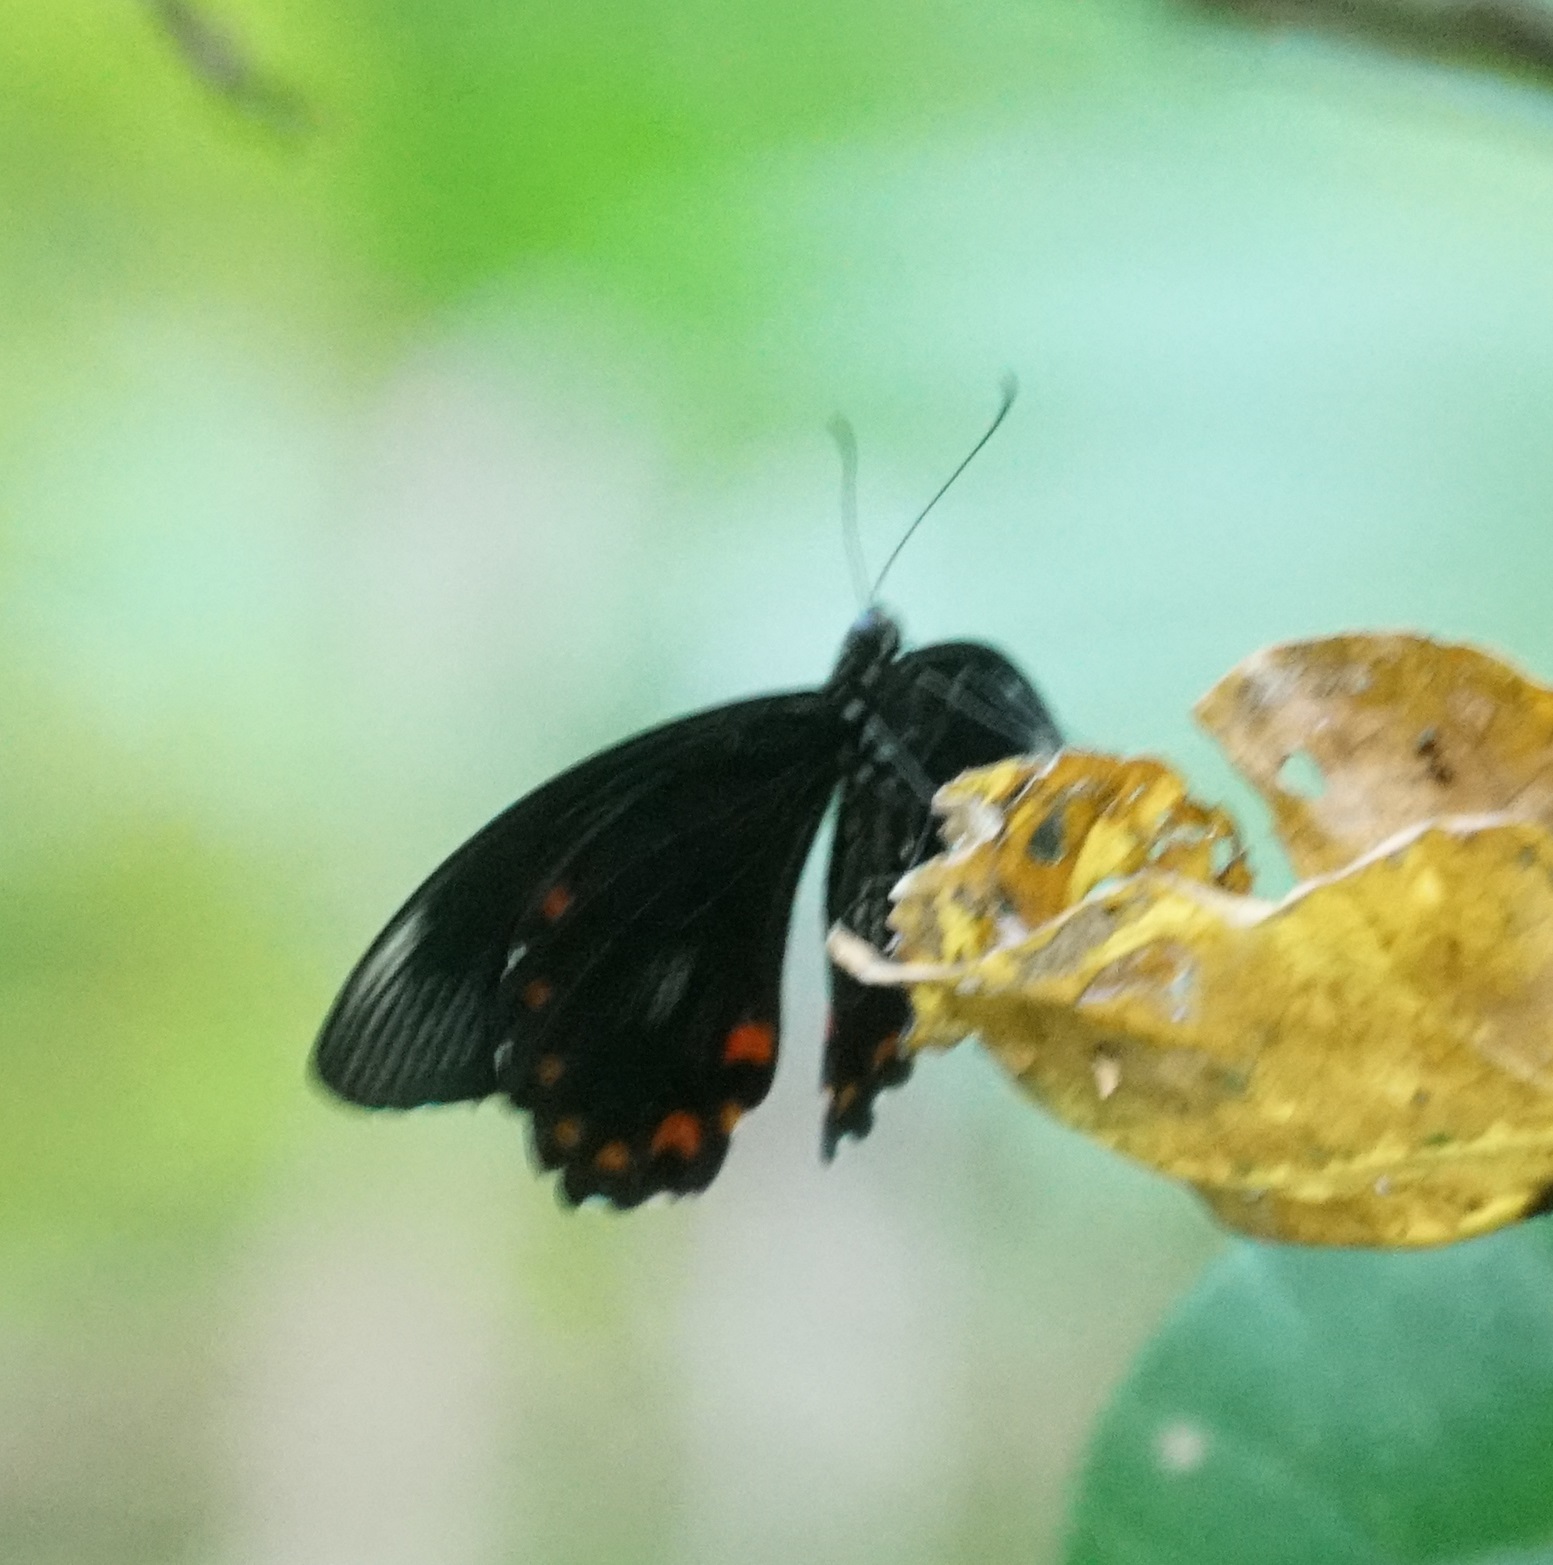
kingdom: Animalia
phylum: Arthropoda
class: Insecta
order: Lepidoptera
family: Papilionidae
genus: Papilio
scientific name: Papilio ambrax
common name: Ambrax butterfly
